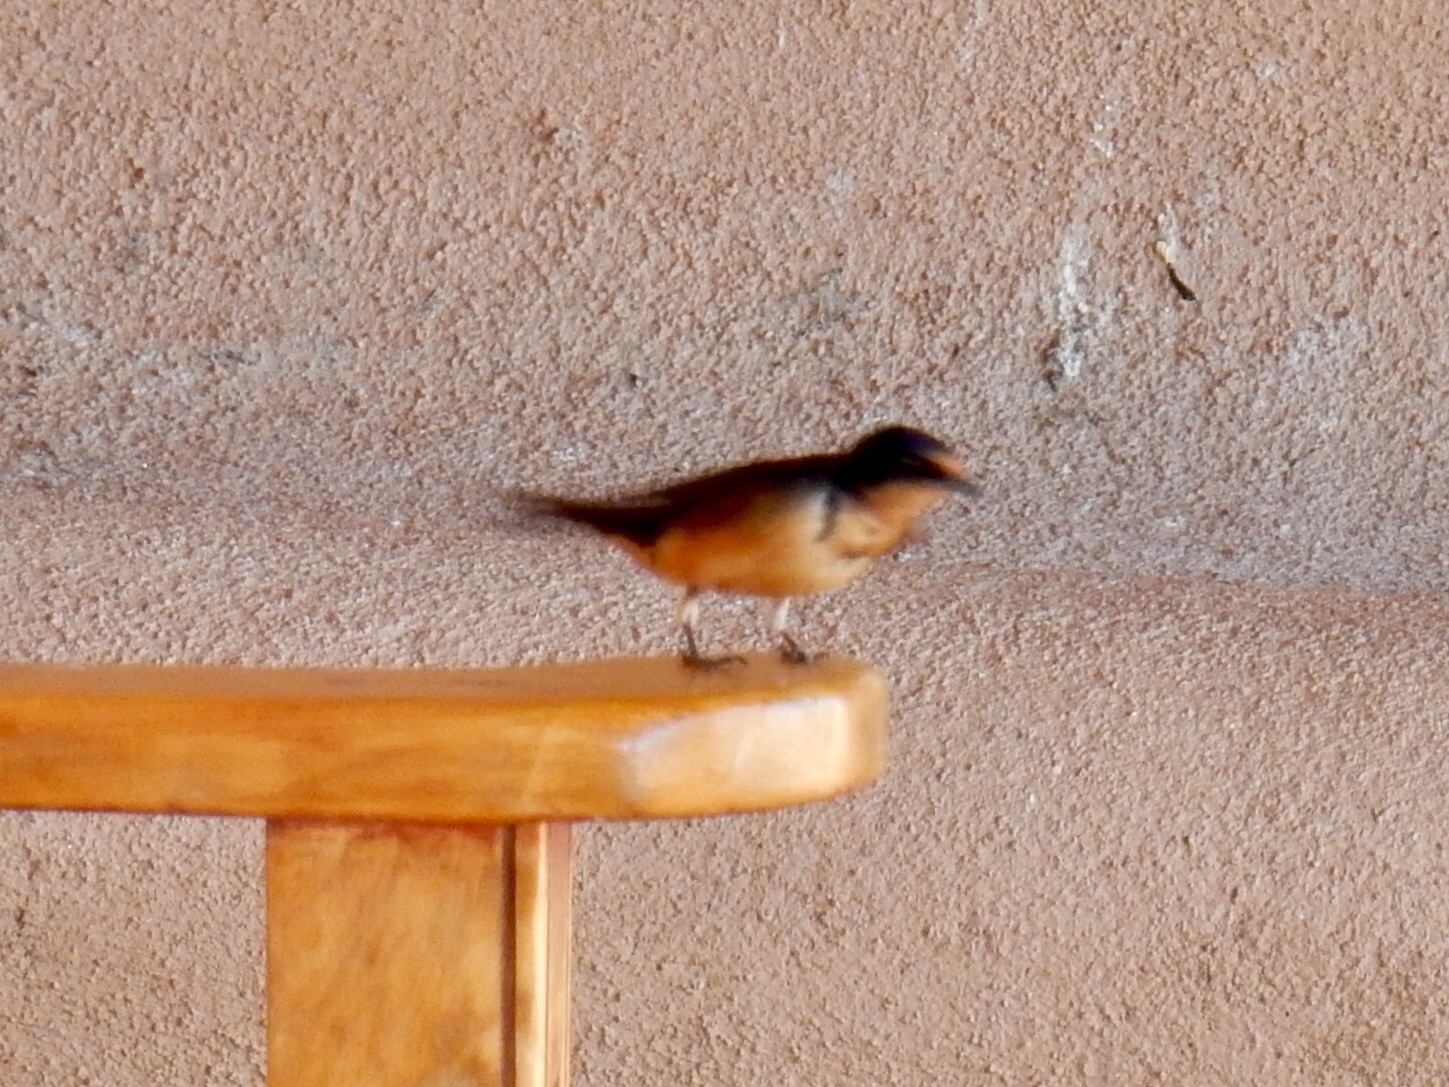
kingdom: Animalia
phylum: Chordata
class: Aves
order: Passeriformes
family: Hirundinidae
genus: Hirundo
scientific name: Hirundo rustica
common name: Barn swallow
